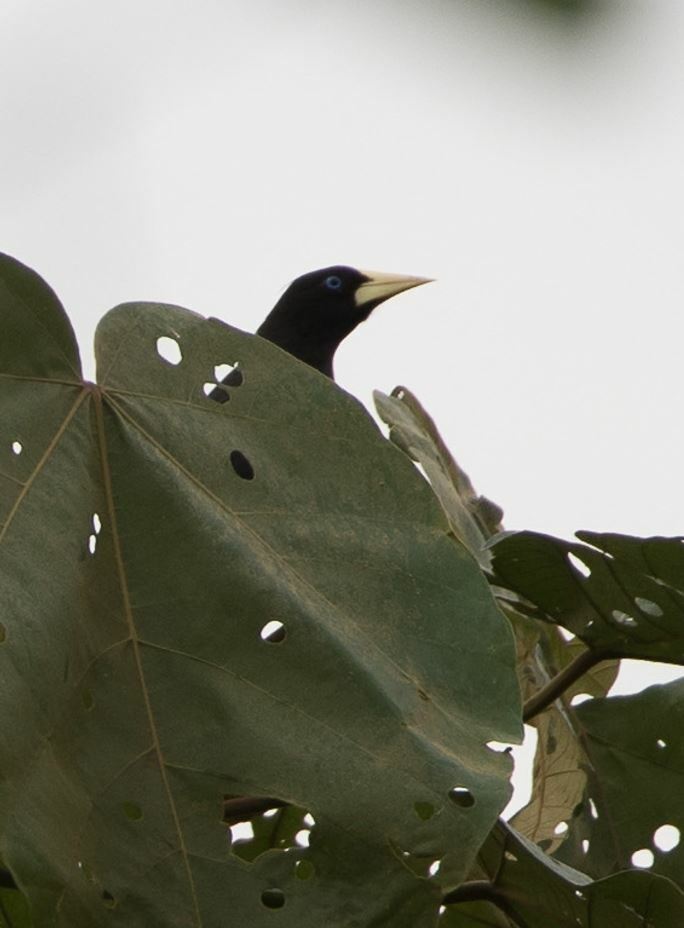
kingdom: Animalia
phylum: Chordata
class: Aves
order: Passeriformes
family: Icteridae
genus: Psarocolius
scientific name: Psarocolius decumanus
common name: Crested oropendola
